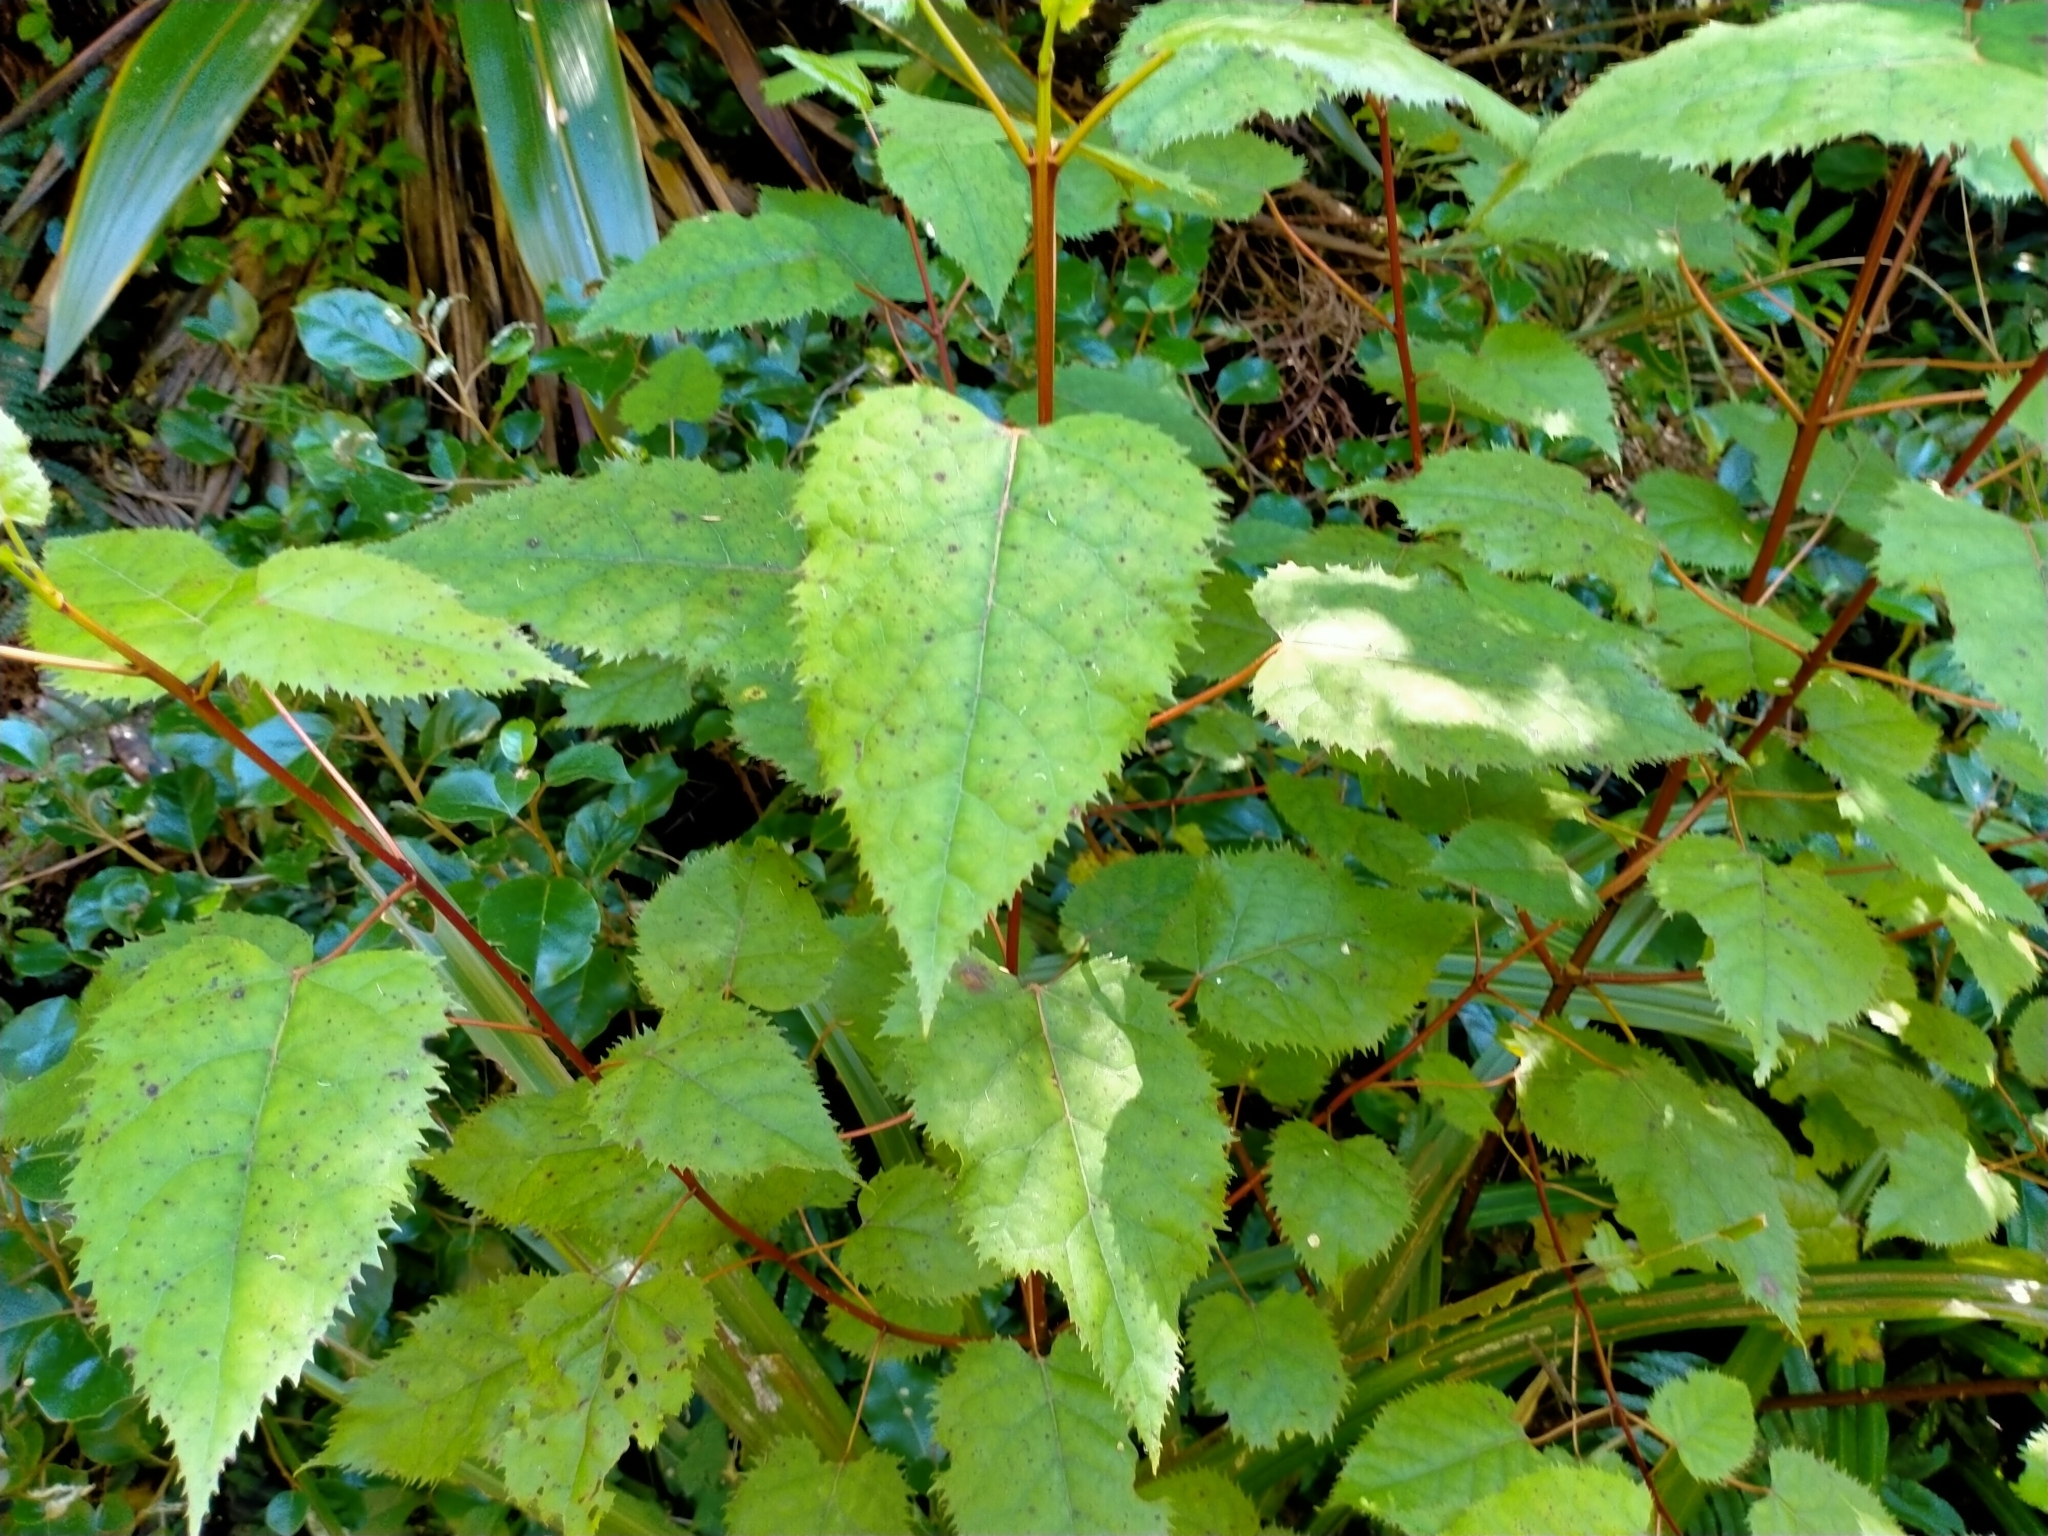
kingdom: Plantae
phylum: Tracheophyta
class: Magnoliopsida
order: Oxalidales
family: Elaeocarpaceae
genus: Aristotelia
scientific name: Aristotelia serrata
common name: New zealand wineberry
